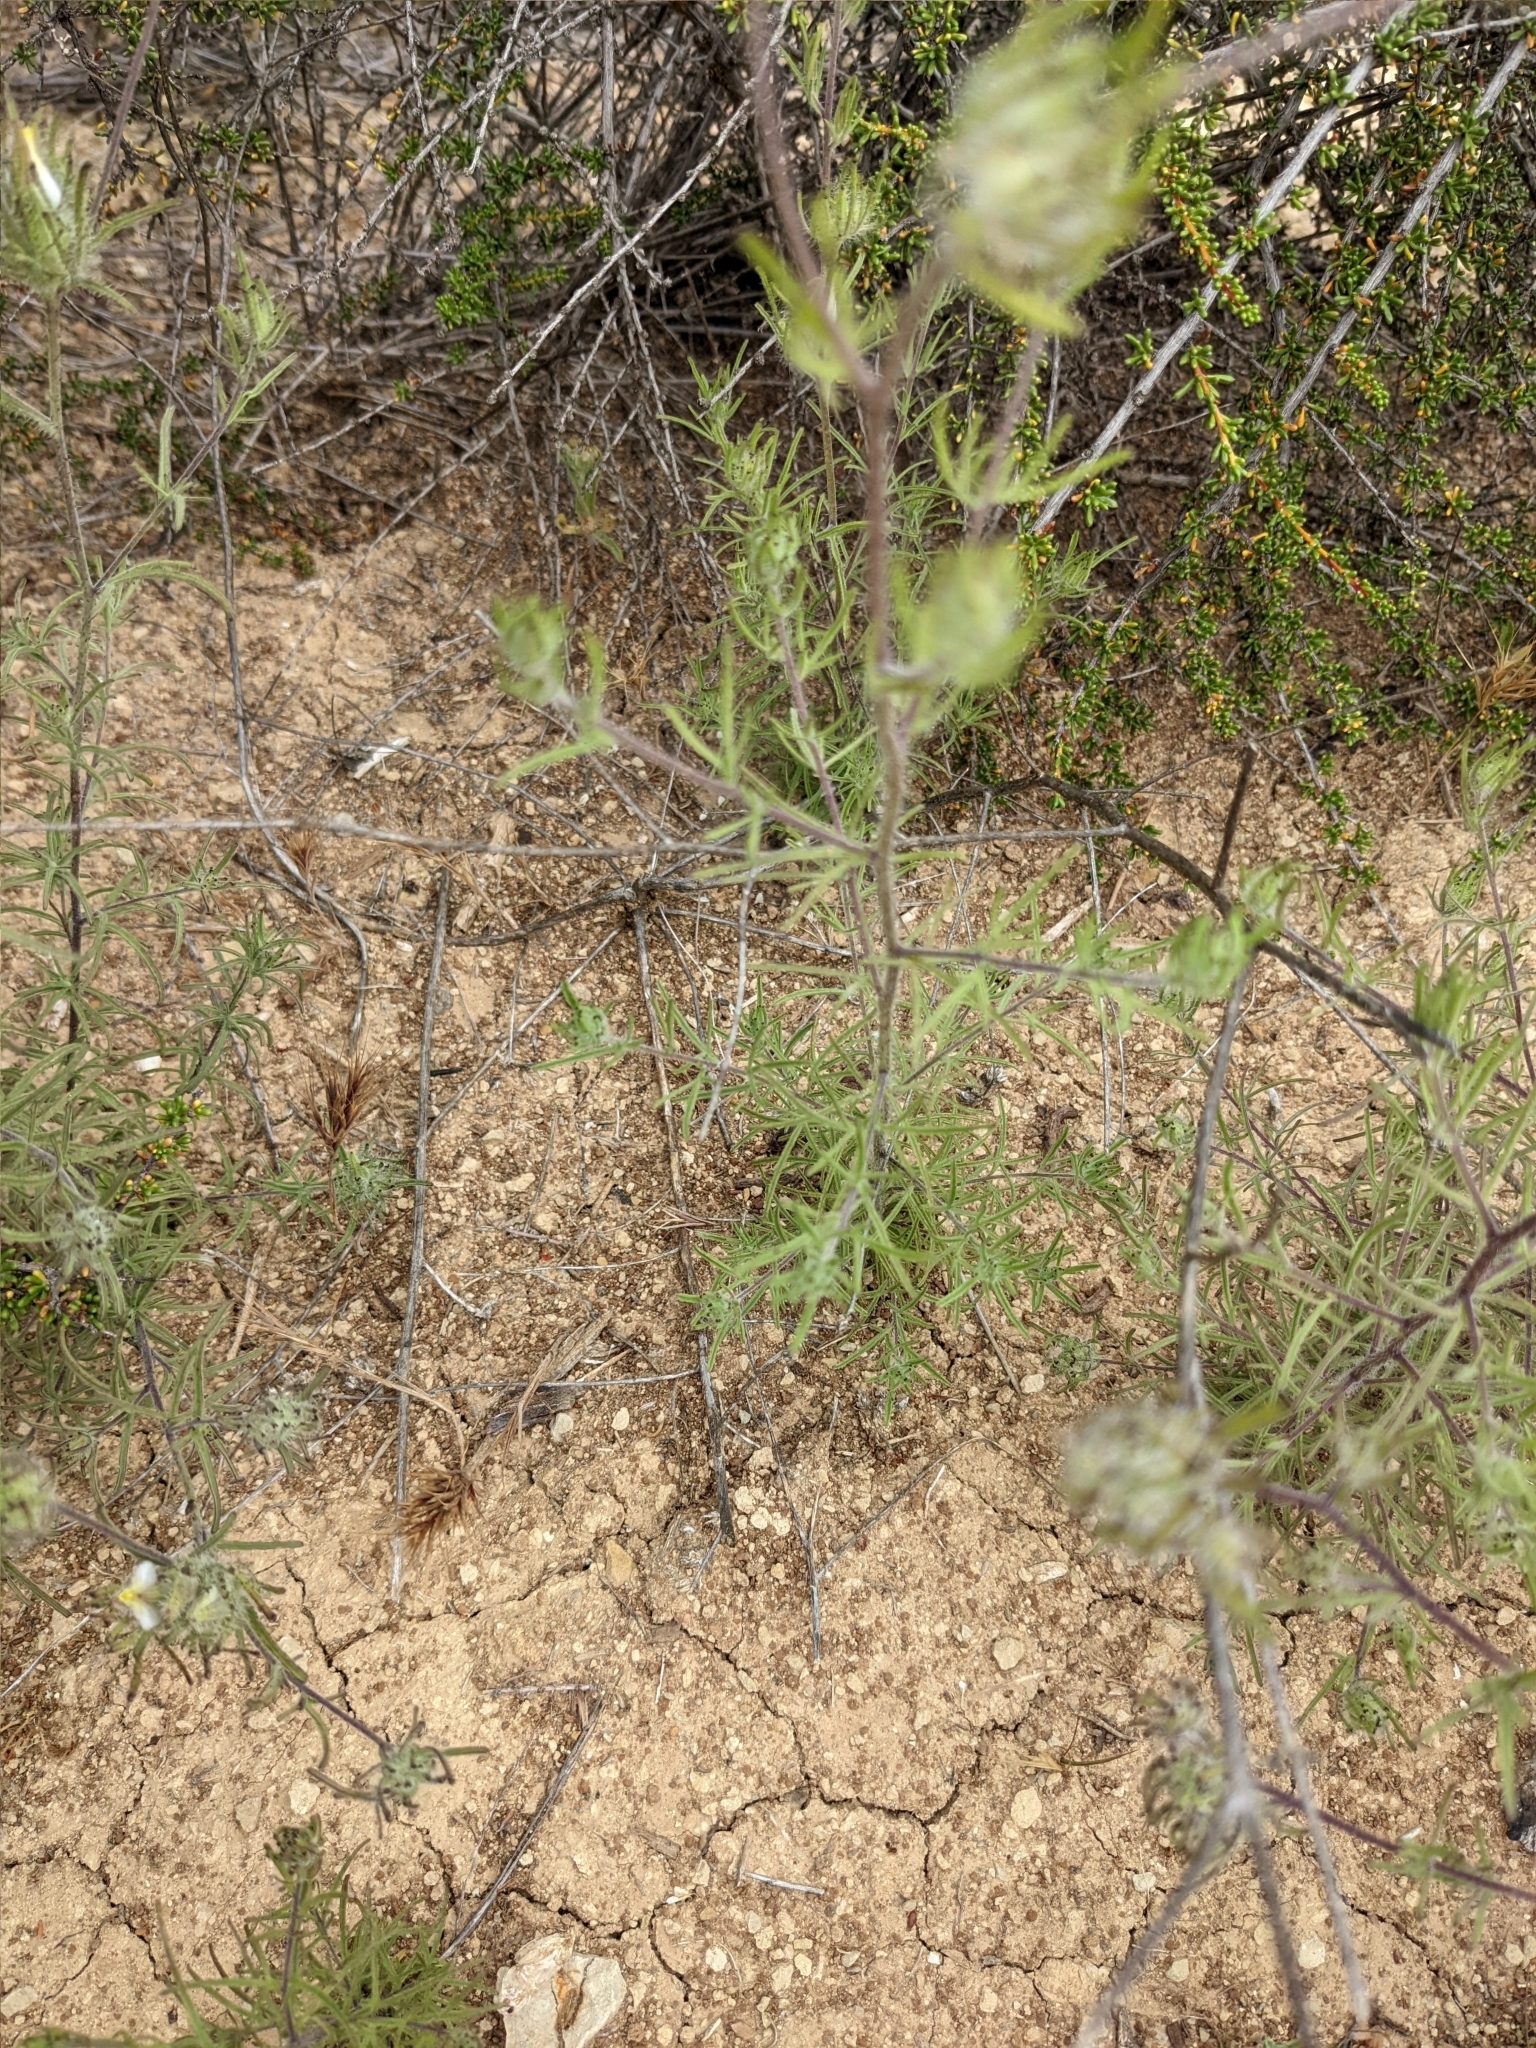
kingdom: Plantae
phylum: Tracheophyta
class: Magnoliopsida
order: Lamiales
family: Orobanchaceae
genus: Cordylanthus
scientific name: Cordylanthus rigidus
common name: Stiff-branch bird's-beak
